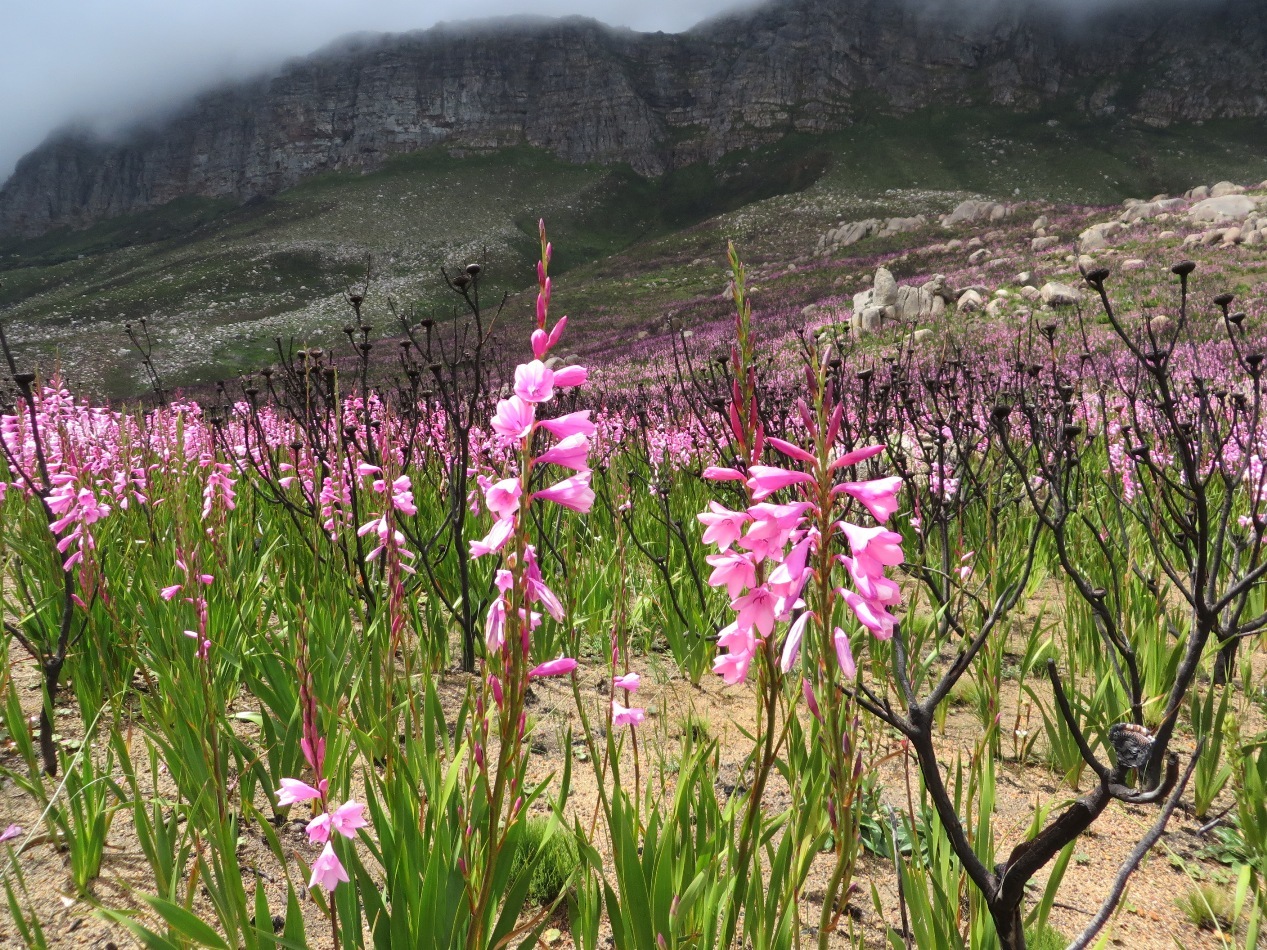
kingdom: Plantae
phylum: Tracheophyta
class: Liliopsida
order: Asparagales
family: Iridaceae
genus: Watsonia
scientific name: Watsonia borbonica
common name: Bugle-lily
